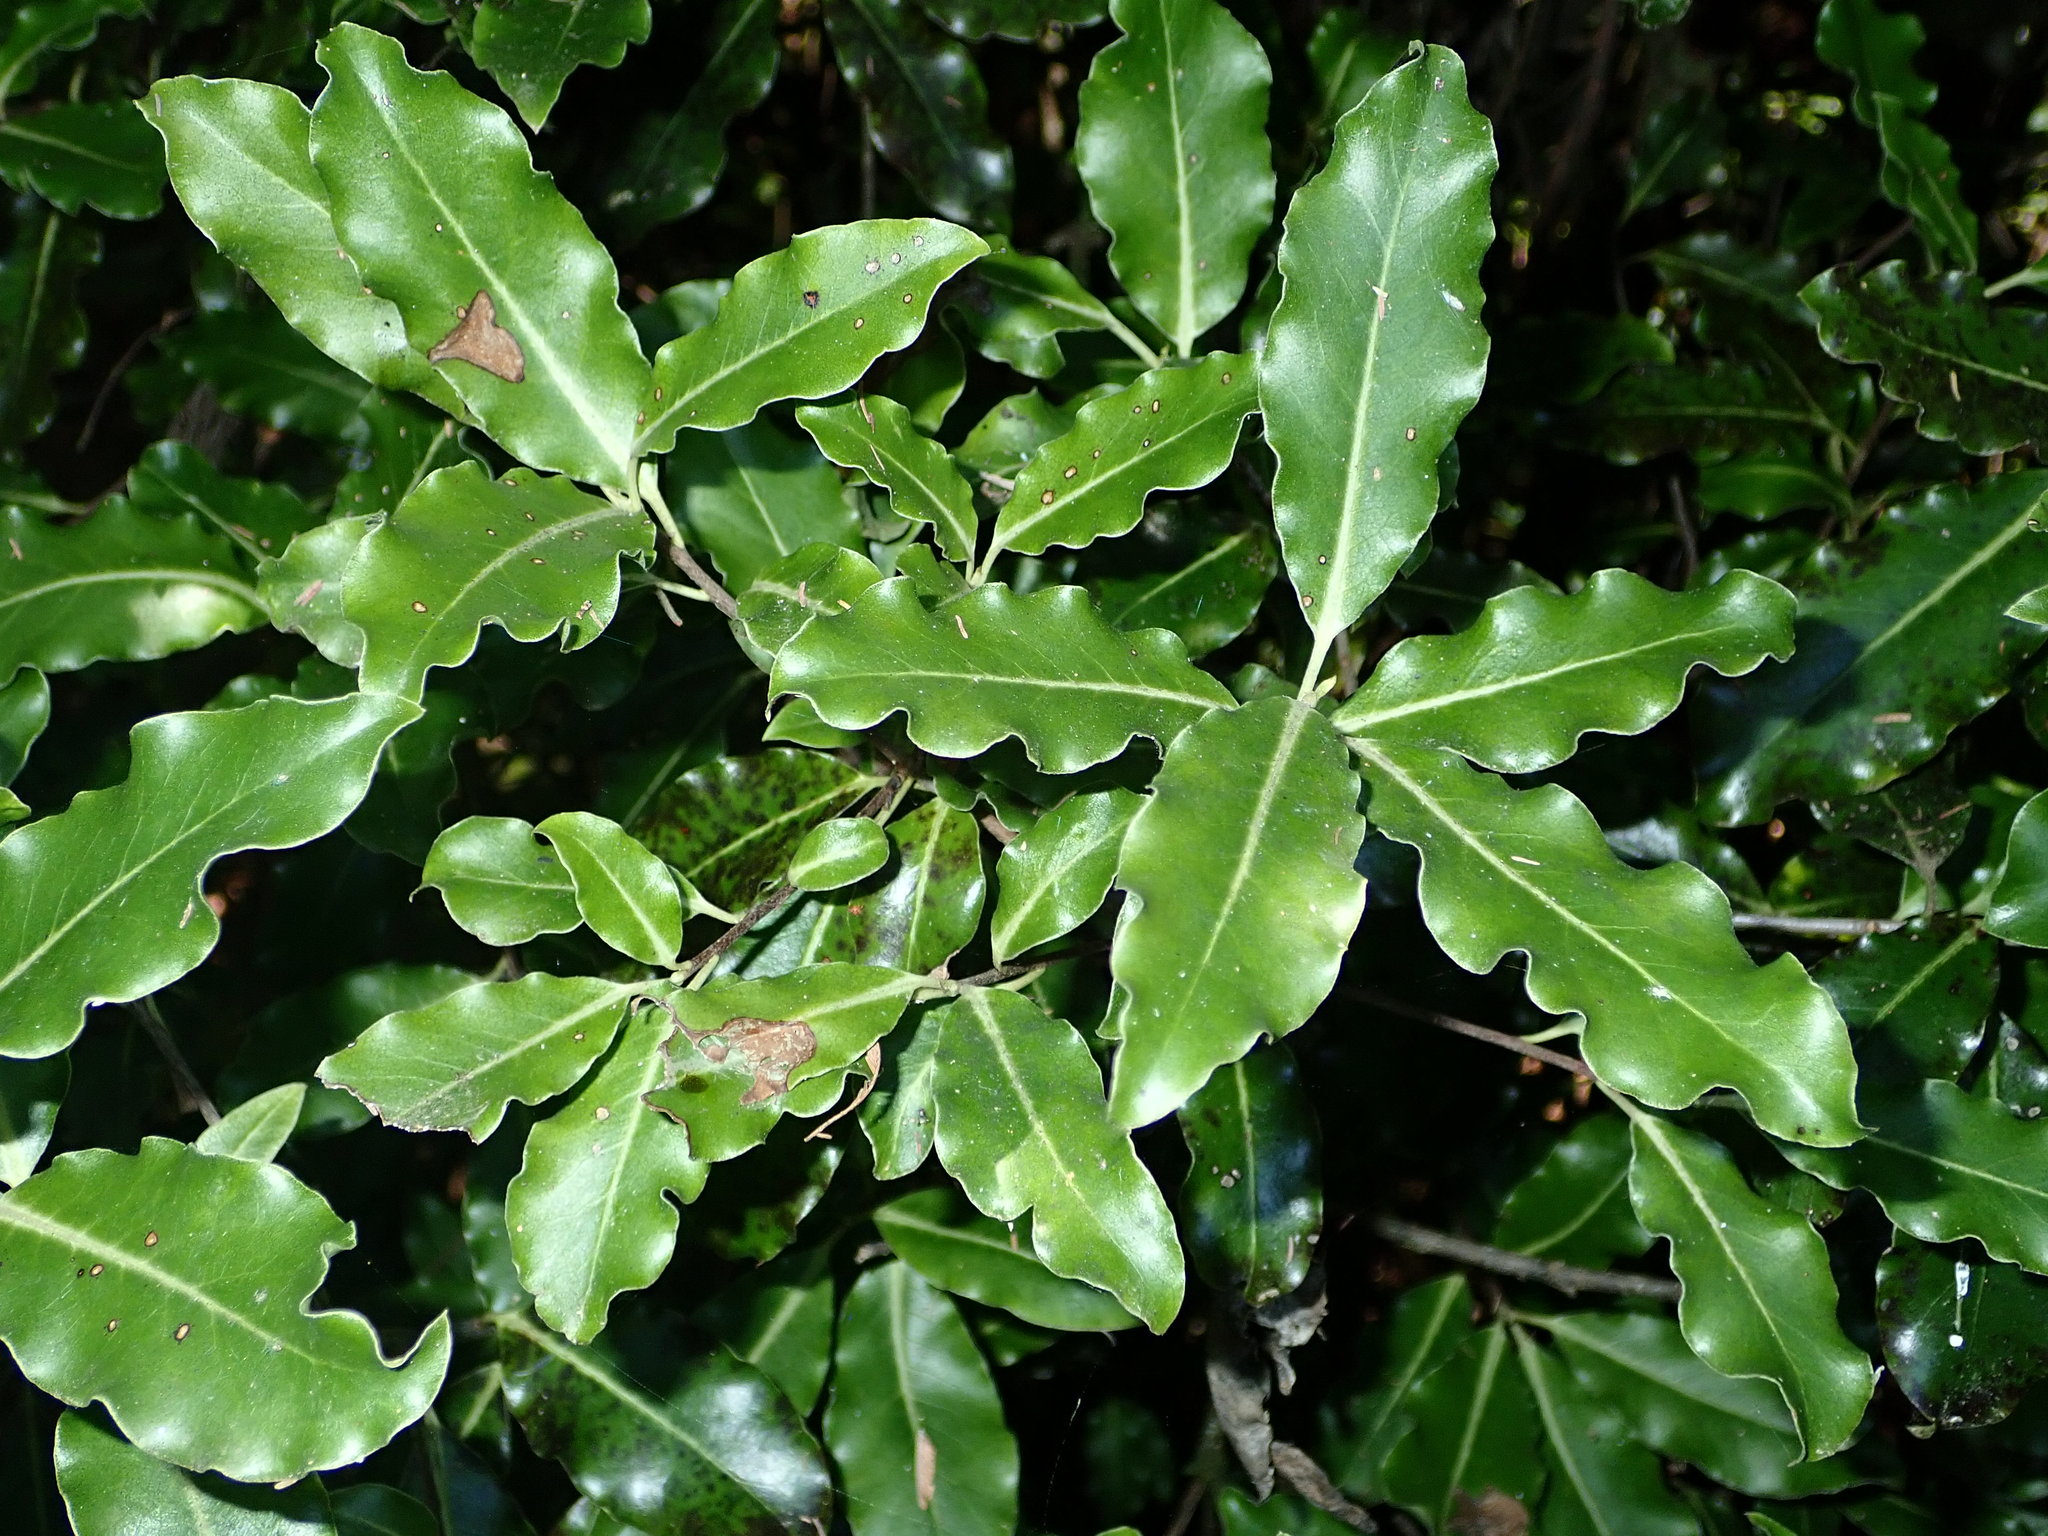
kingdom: Plantae
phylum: Tracheophyta
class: Magnoliopsida
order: Apiales
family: Pittosporaceae
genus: Pittosporum
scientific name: Pittosporum eugenioides
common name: Lemonwood
